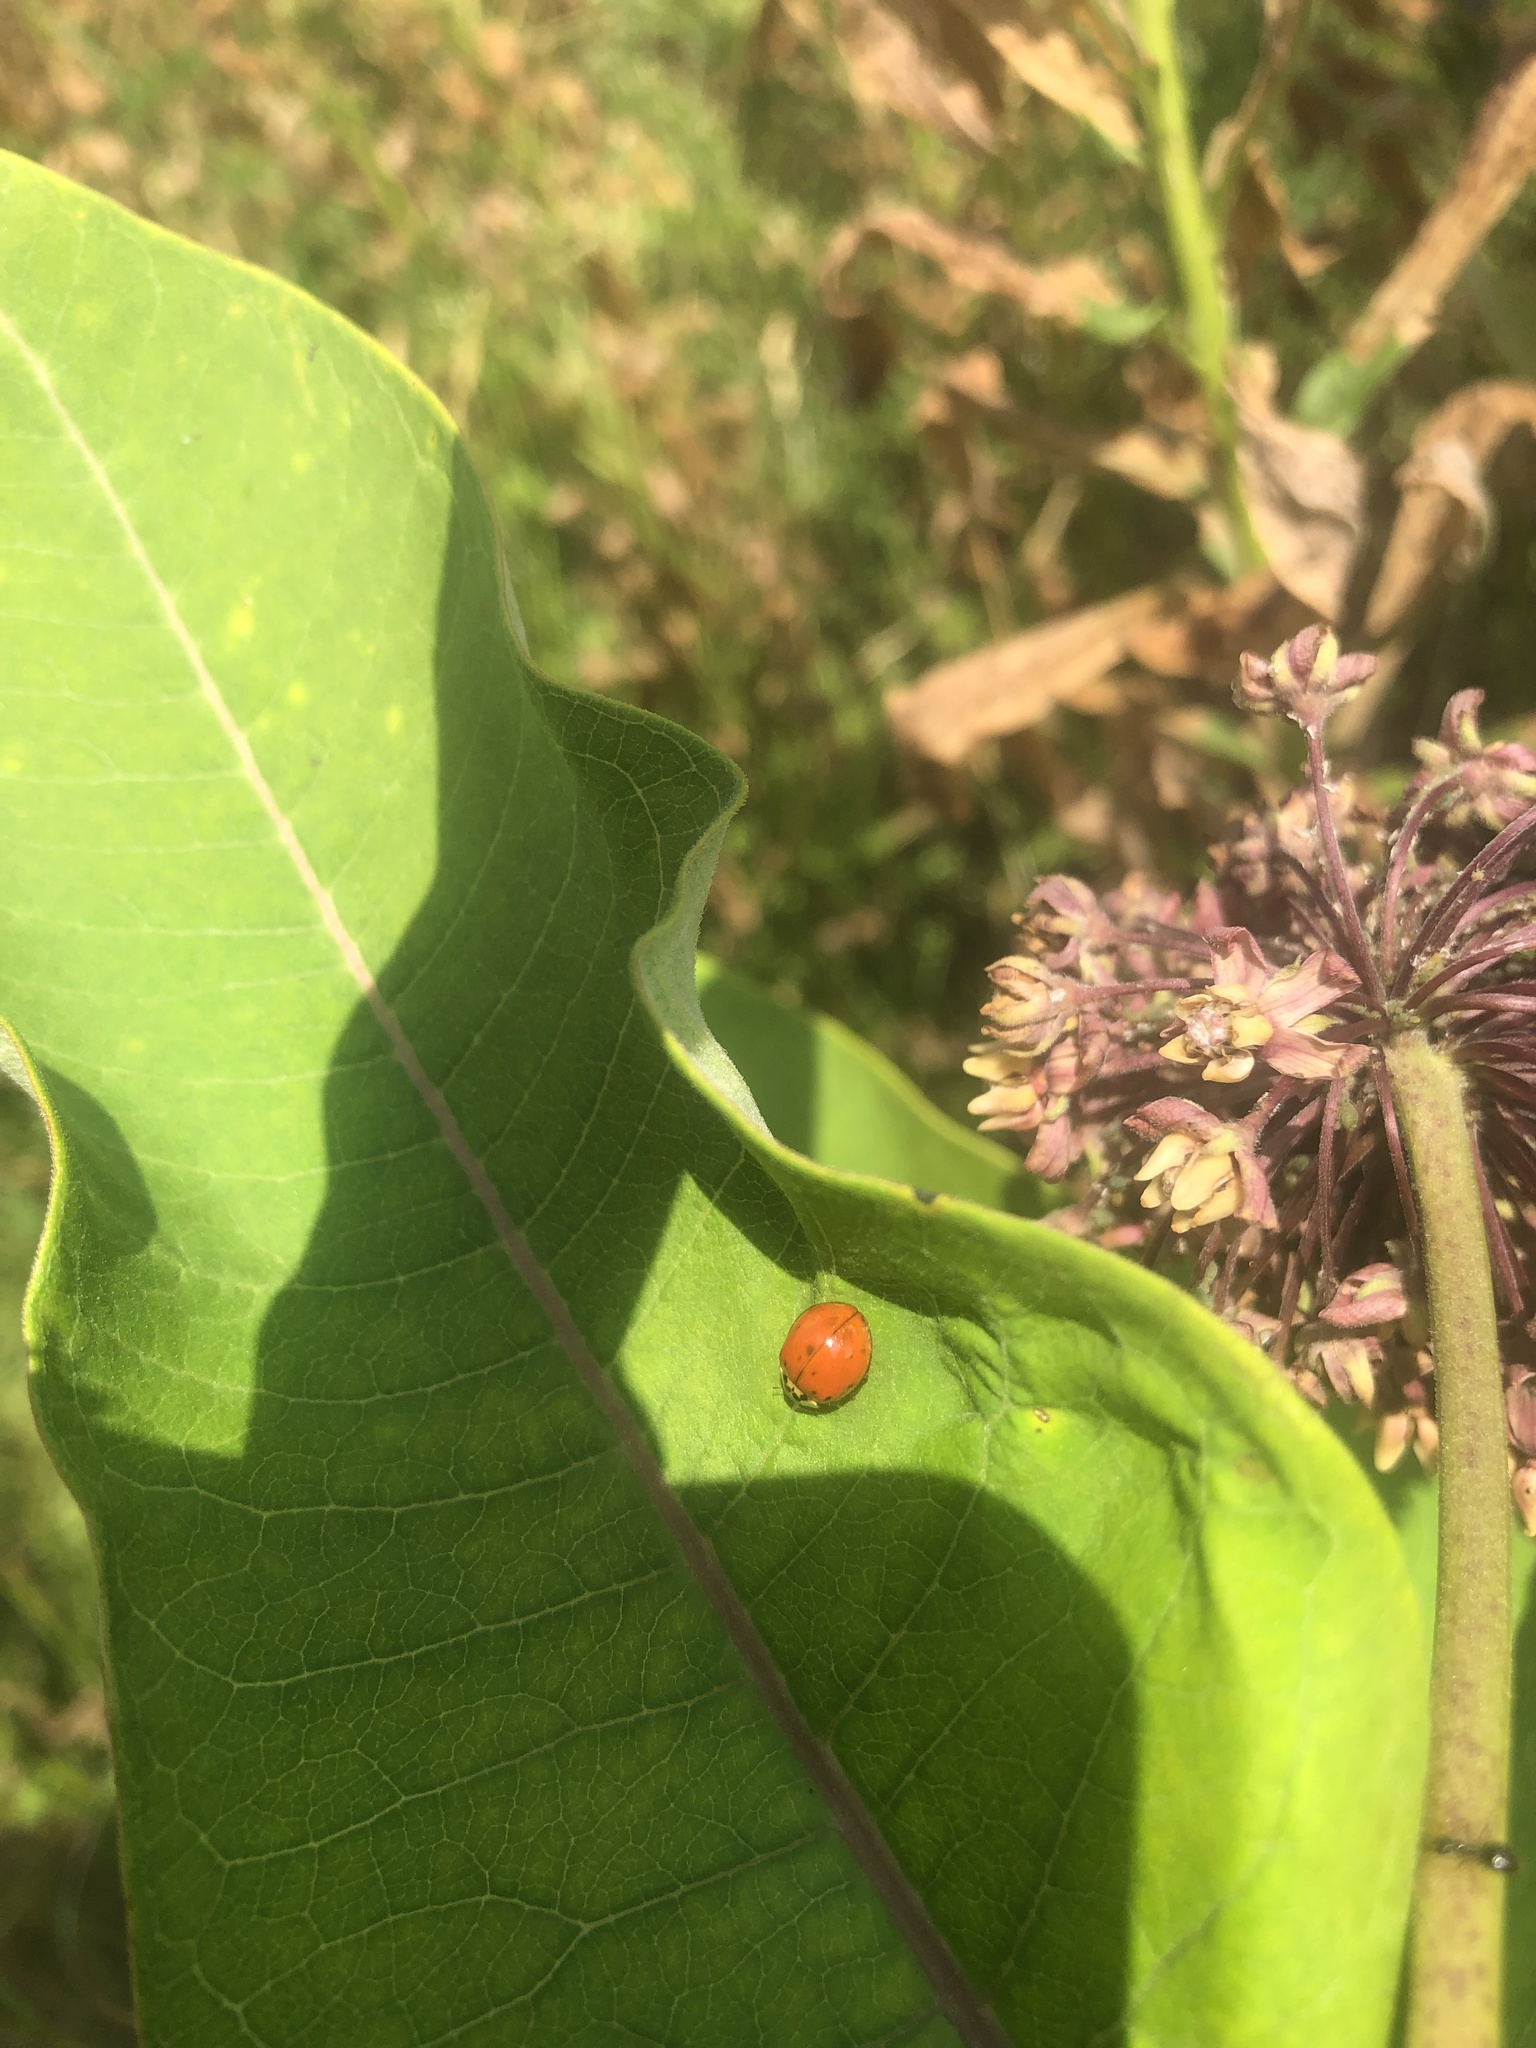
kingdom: Animalia
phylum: Arthropoda
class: Insecta
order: Coleoptera
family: Coccinellidae
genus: Harmonia
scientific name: Harmonia axyridis
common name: Harlequin ladybird
